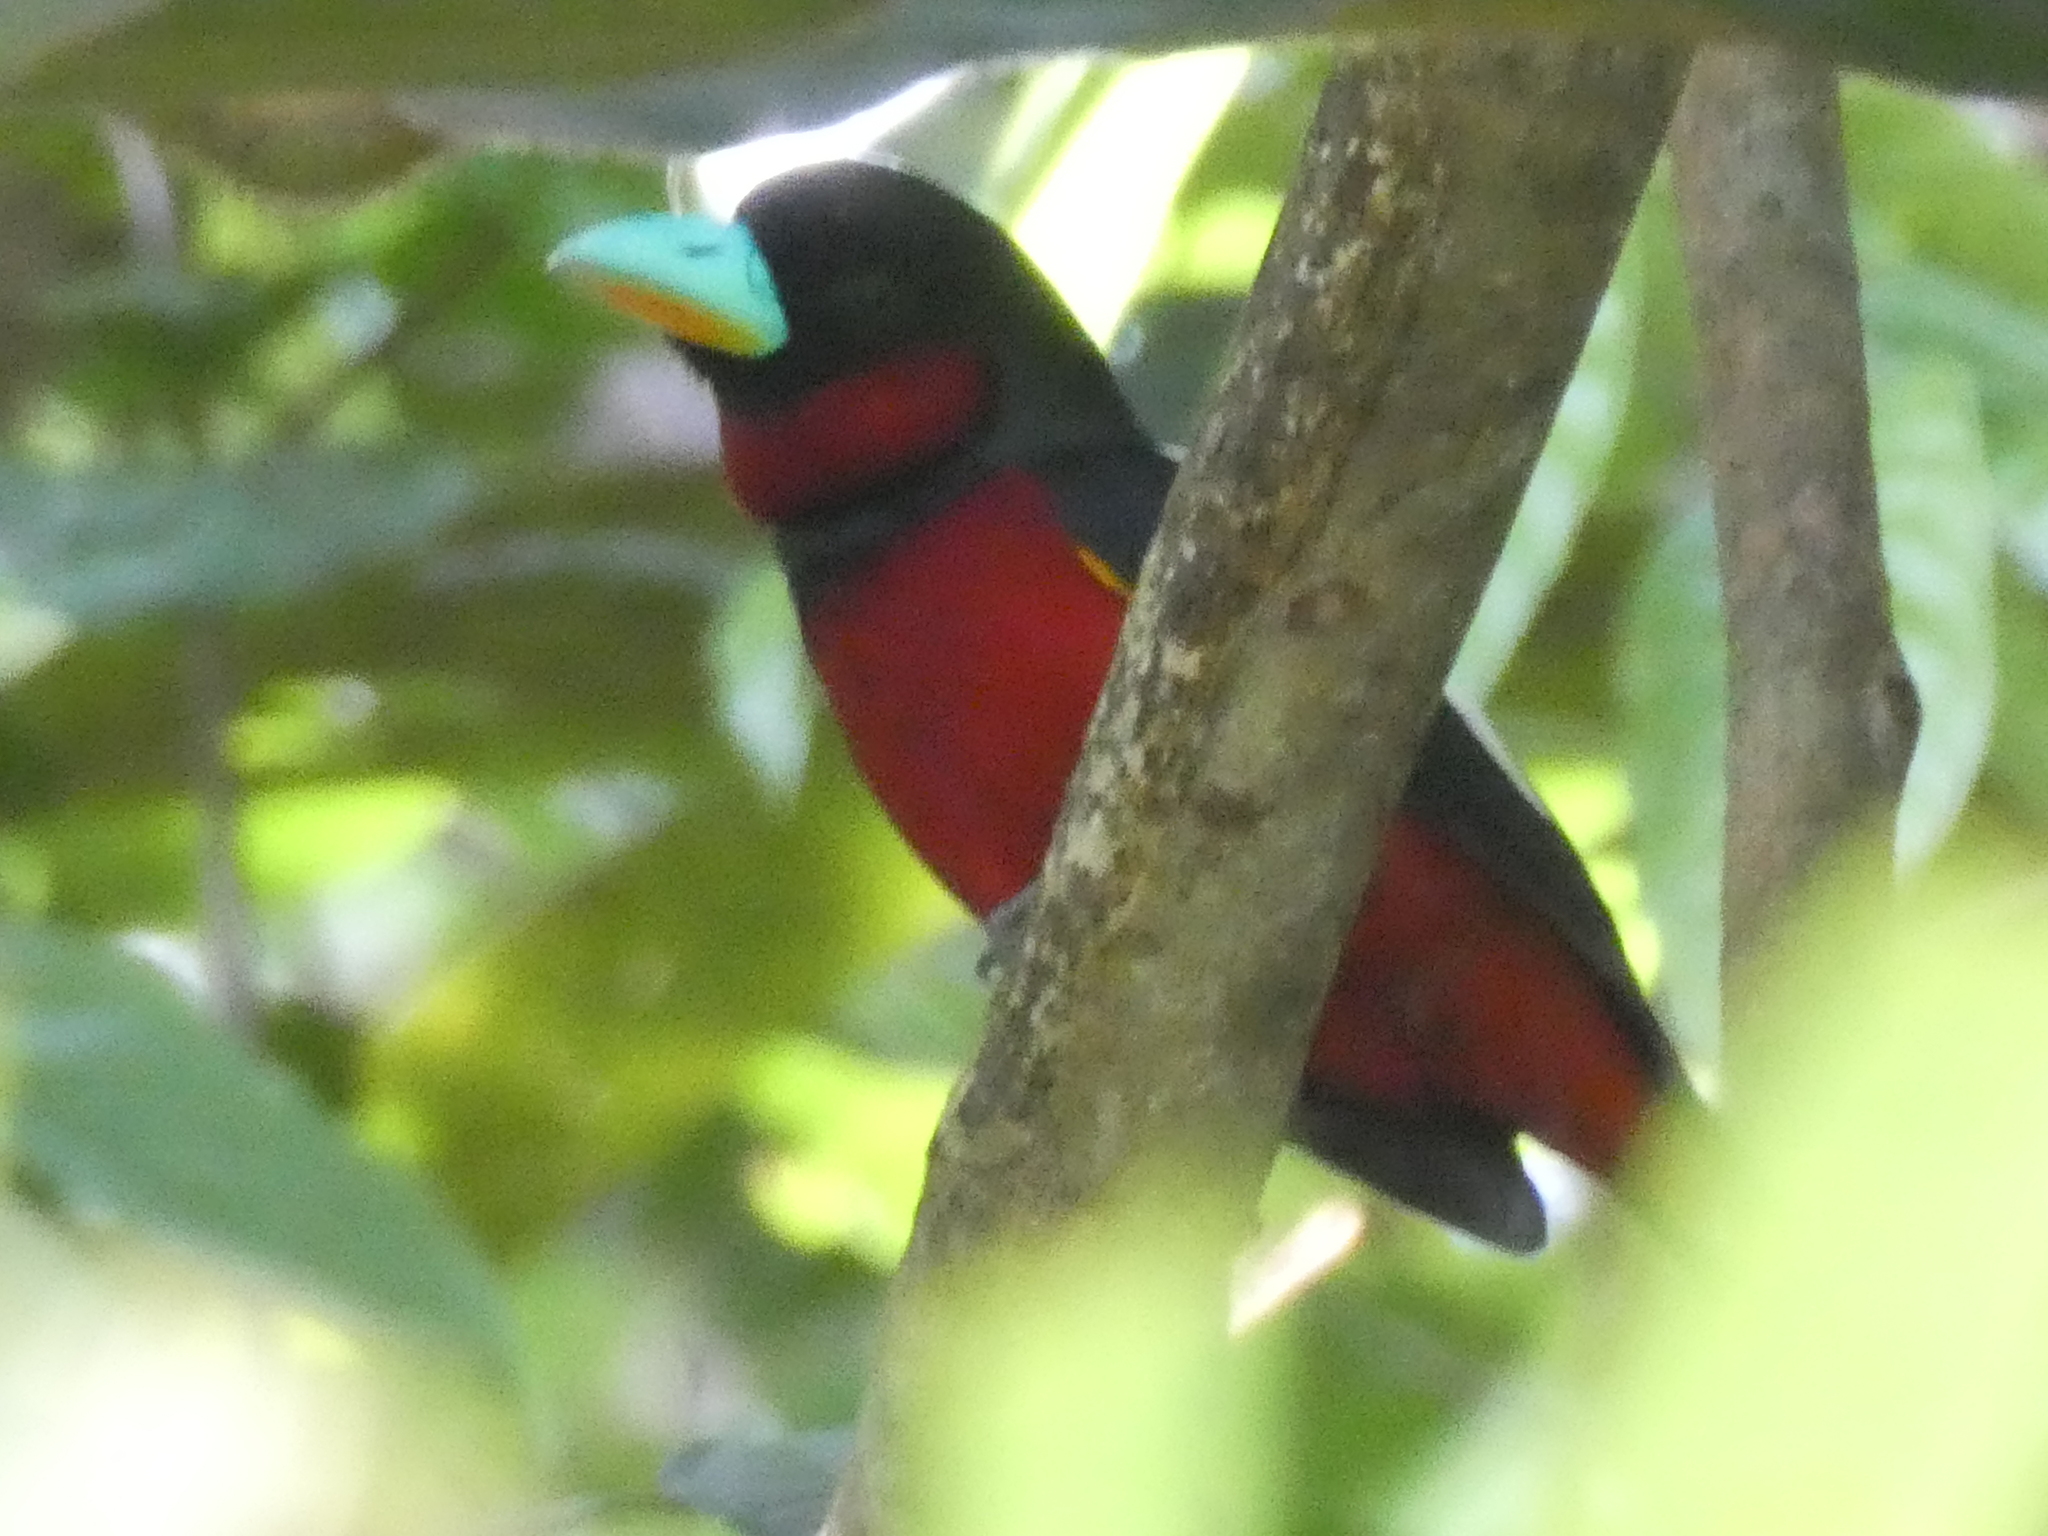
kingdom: Animalia
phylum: Chordata
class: Aves
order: Passeriformes
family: Eurylaimidae
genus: Cymbirhynchus
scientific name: Cymbirhynchus macrorhynchos
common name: Black-and-red broadbill
